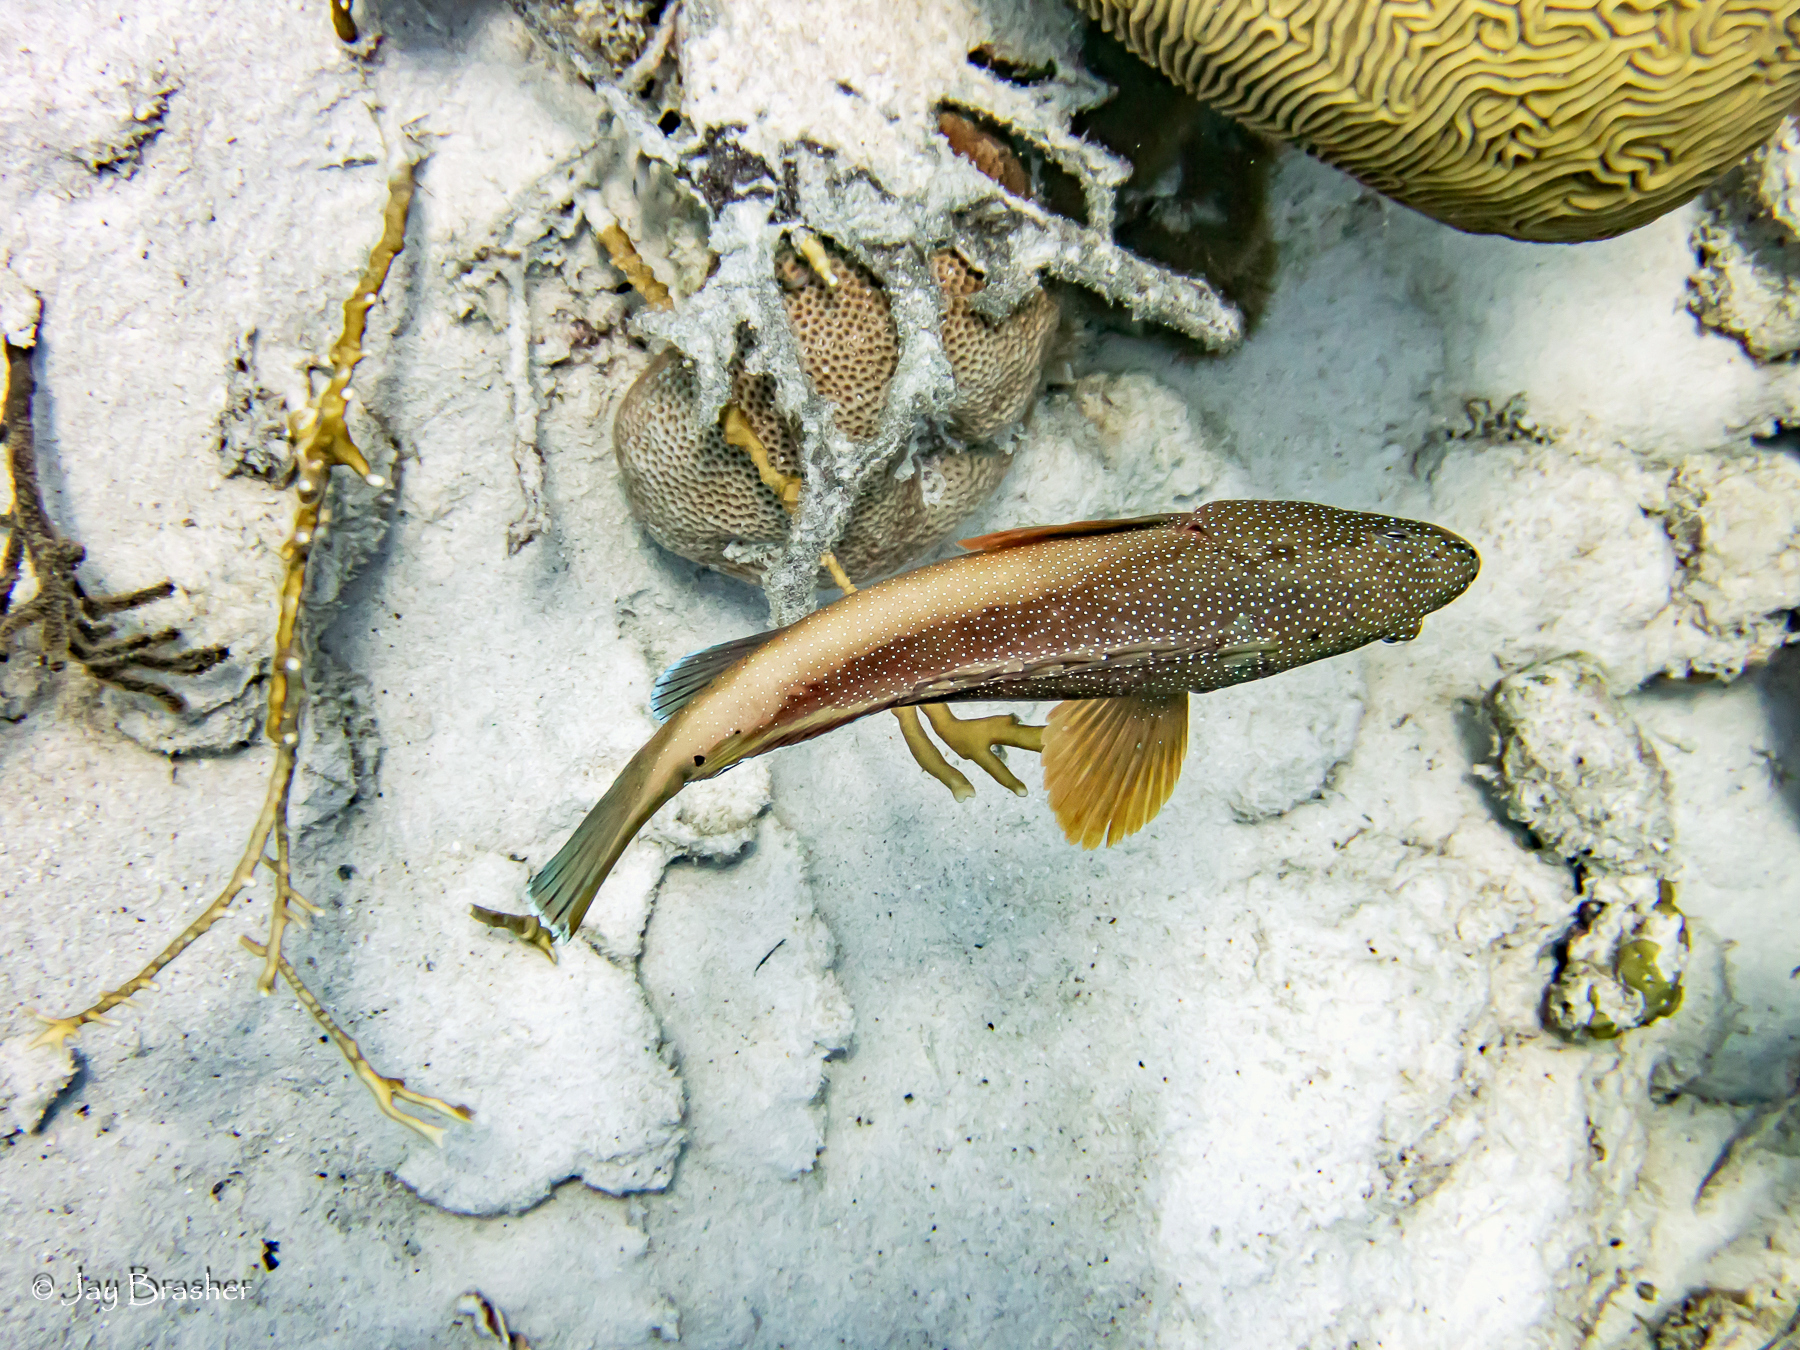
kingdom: Animalia
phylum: Cnidaria
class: Anthozoa
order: Scleractinia
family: Rhizangiidae
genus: Siderastrea
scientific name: Siderastrea siderea
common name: Massive starlet coral
